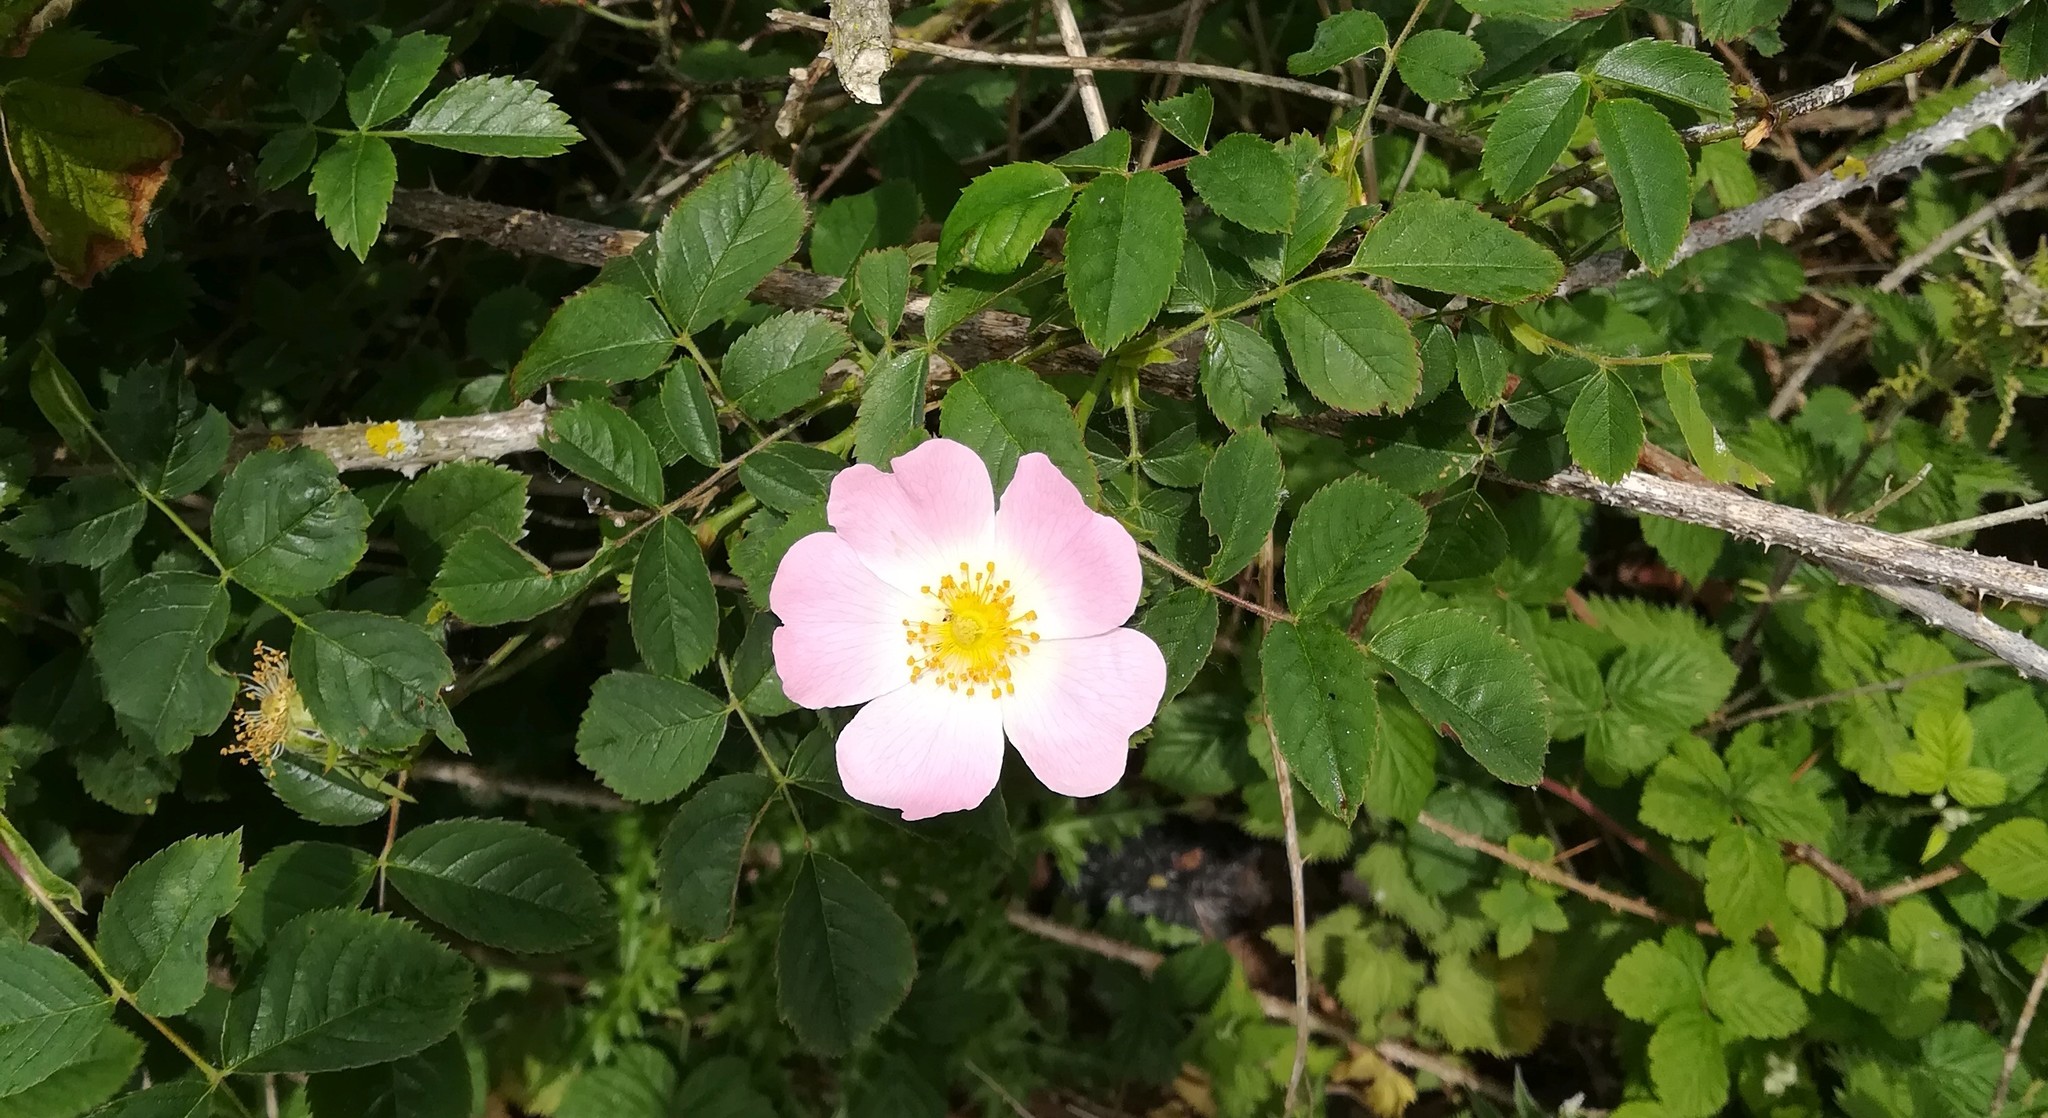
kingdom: Plantae
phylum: Tracheophyta
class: Magnoliopsida
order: Rosales
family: Rosaceae
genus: Rosa
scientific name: Rosa canina
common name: Dog rose
